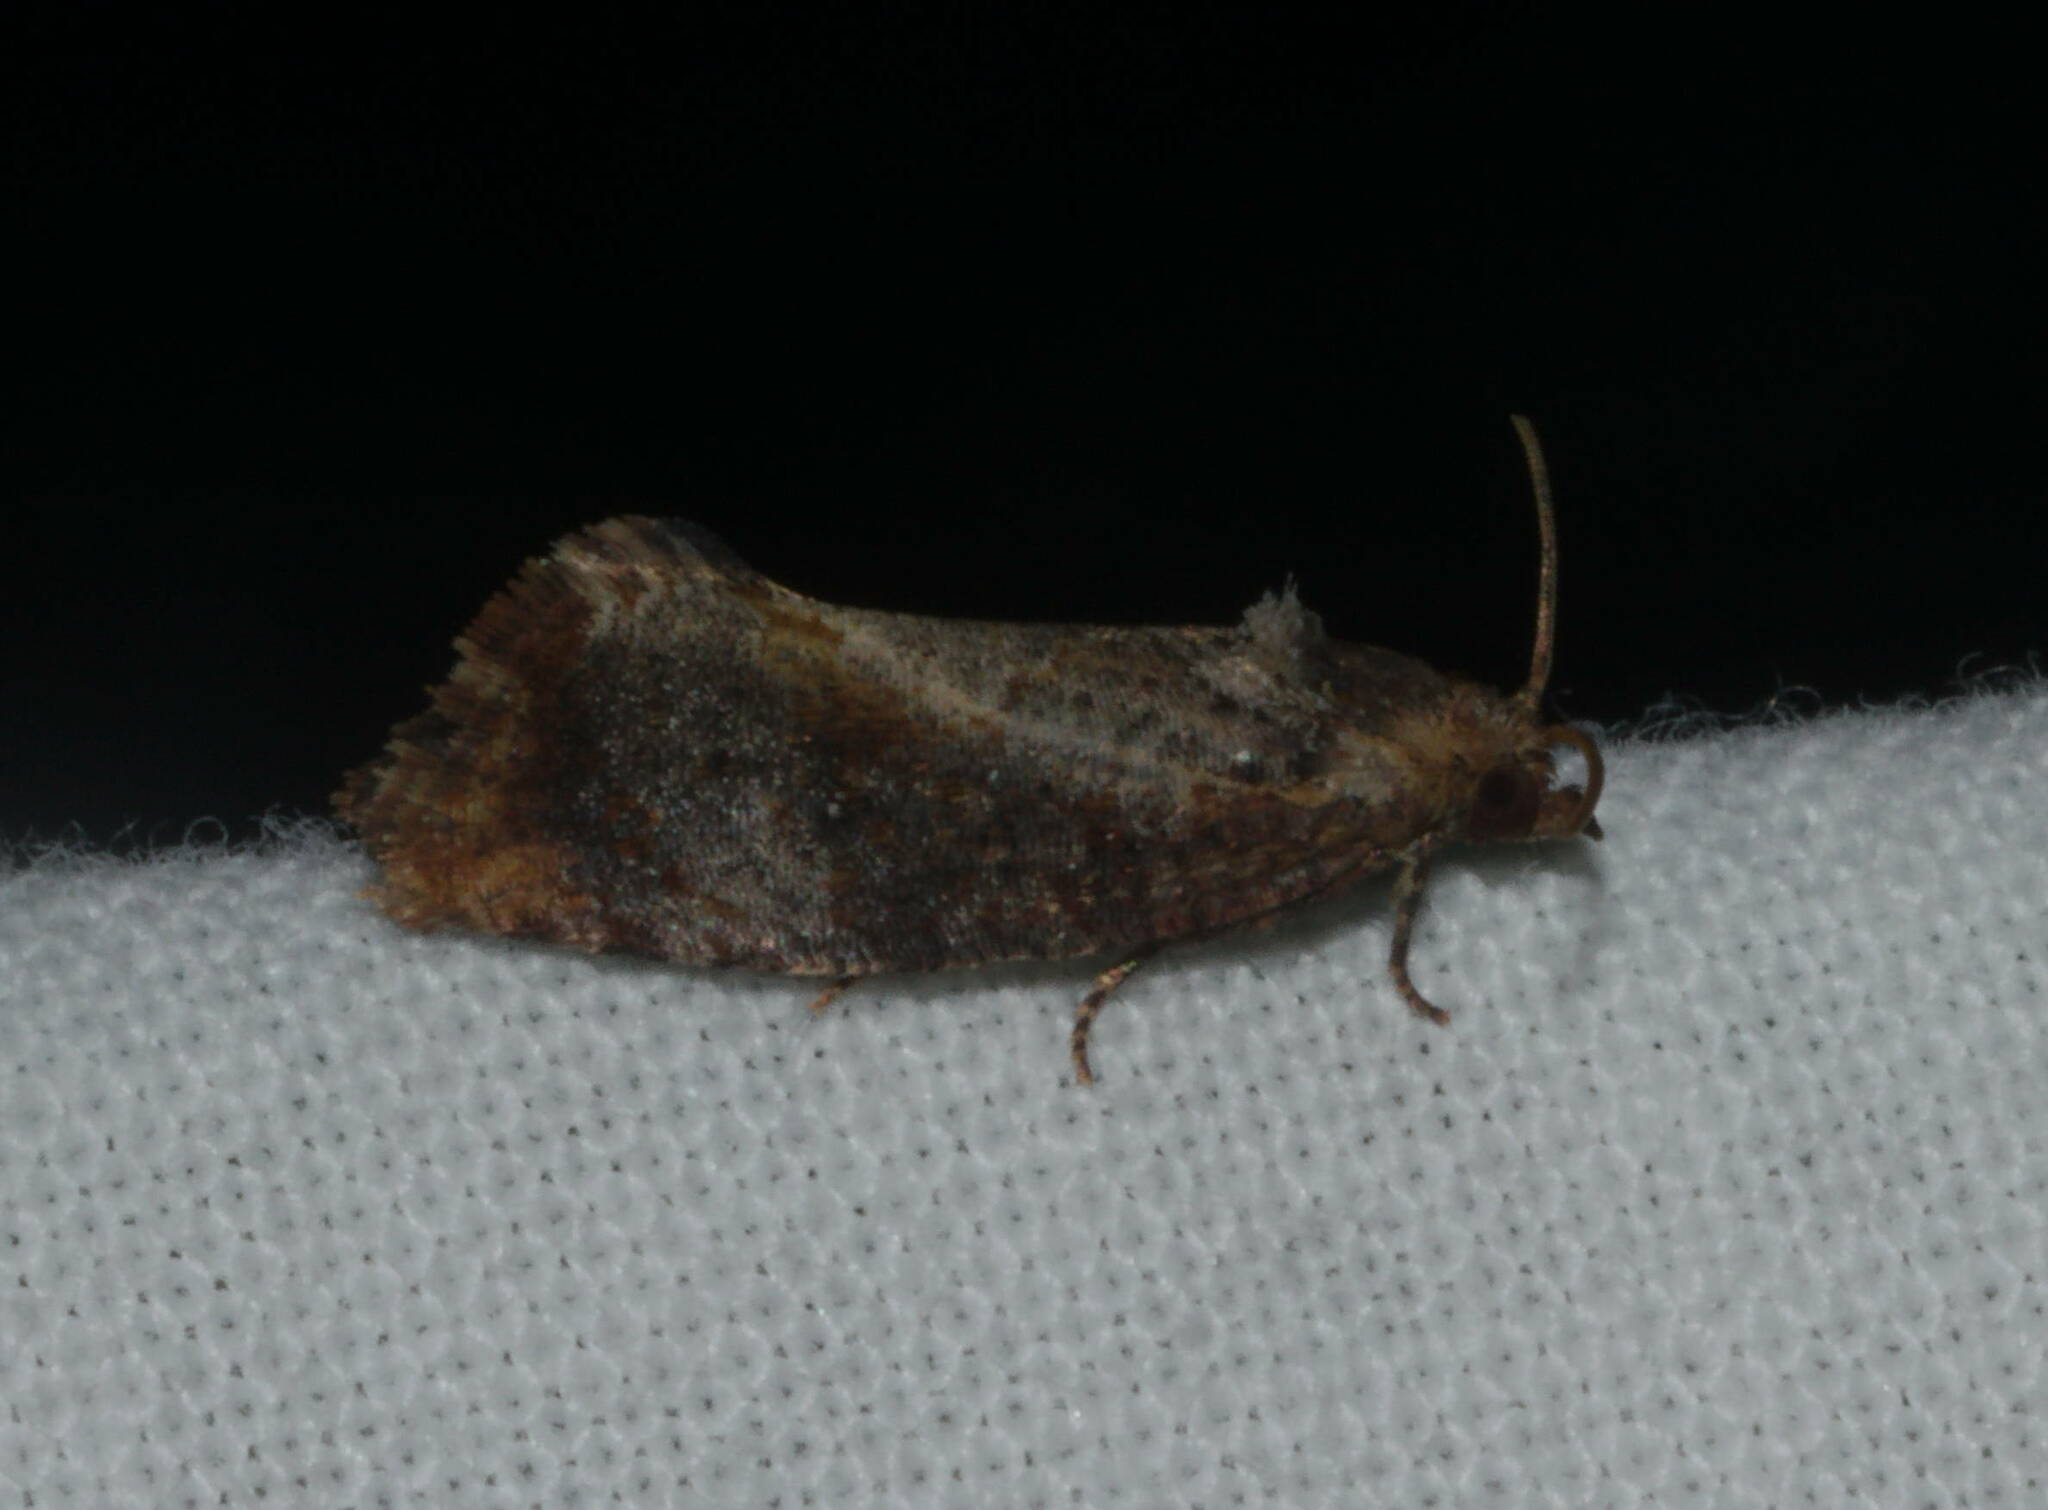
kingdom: Animalia
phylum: Arthropoda
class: Insecta
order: Lepidoptera
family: Tortricidae
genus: Cryptophlebia
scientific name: Cryptophlebia illepida
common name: Moth
